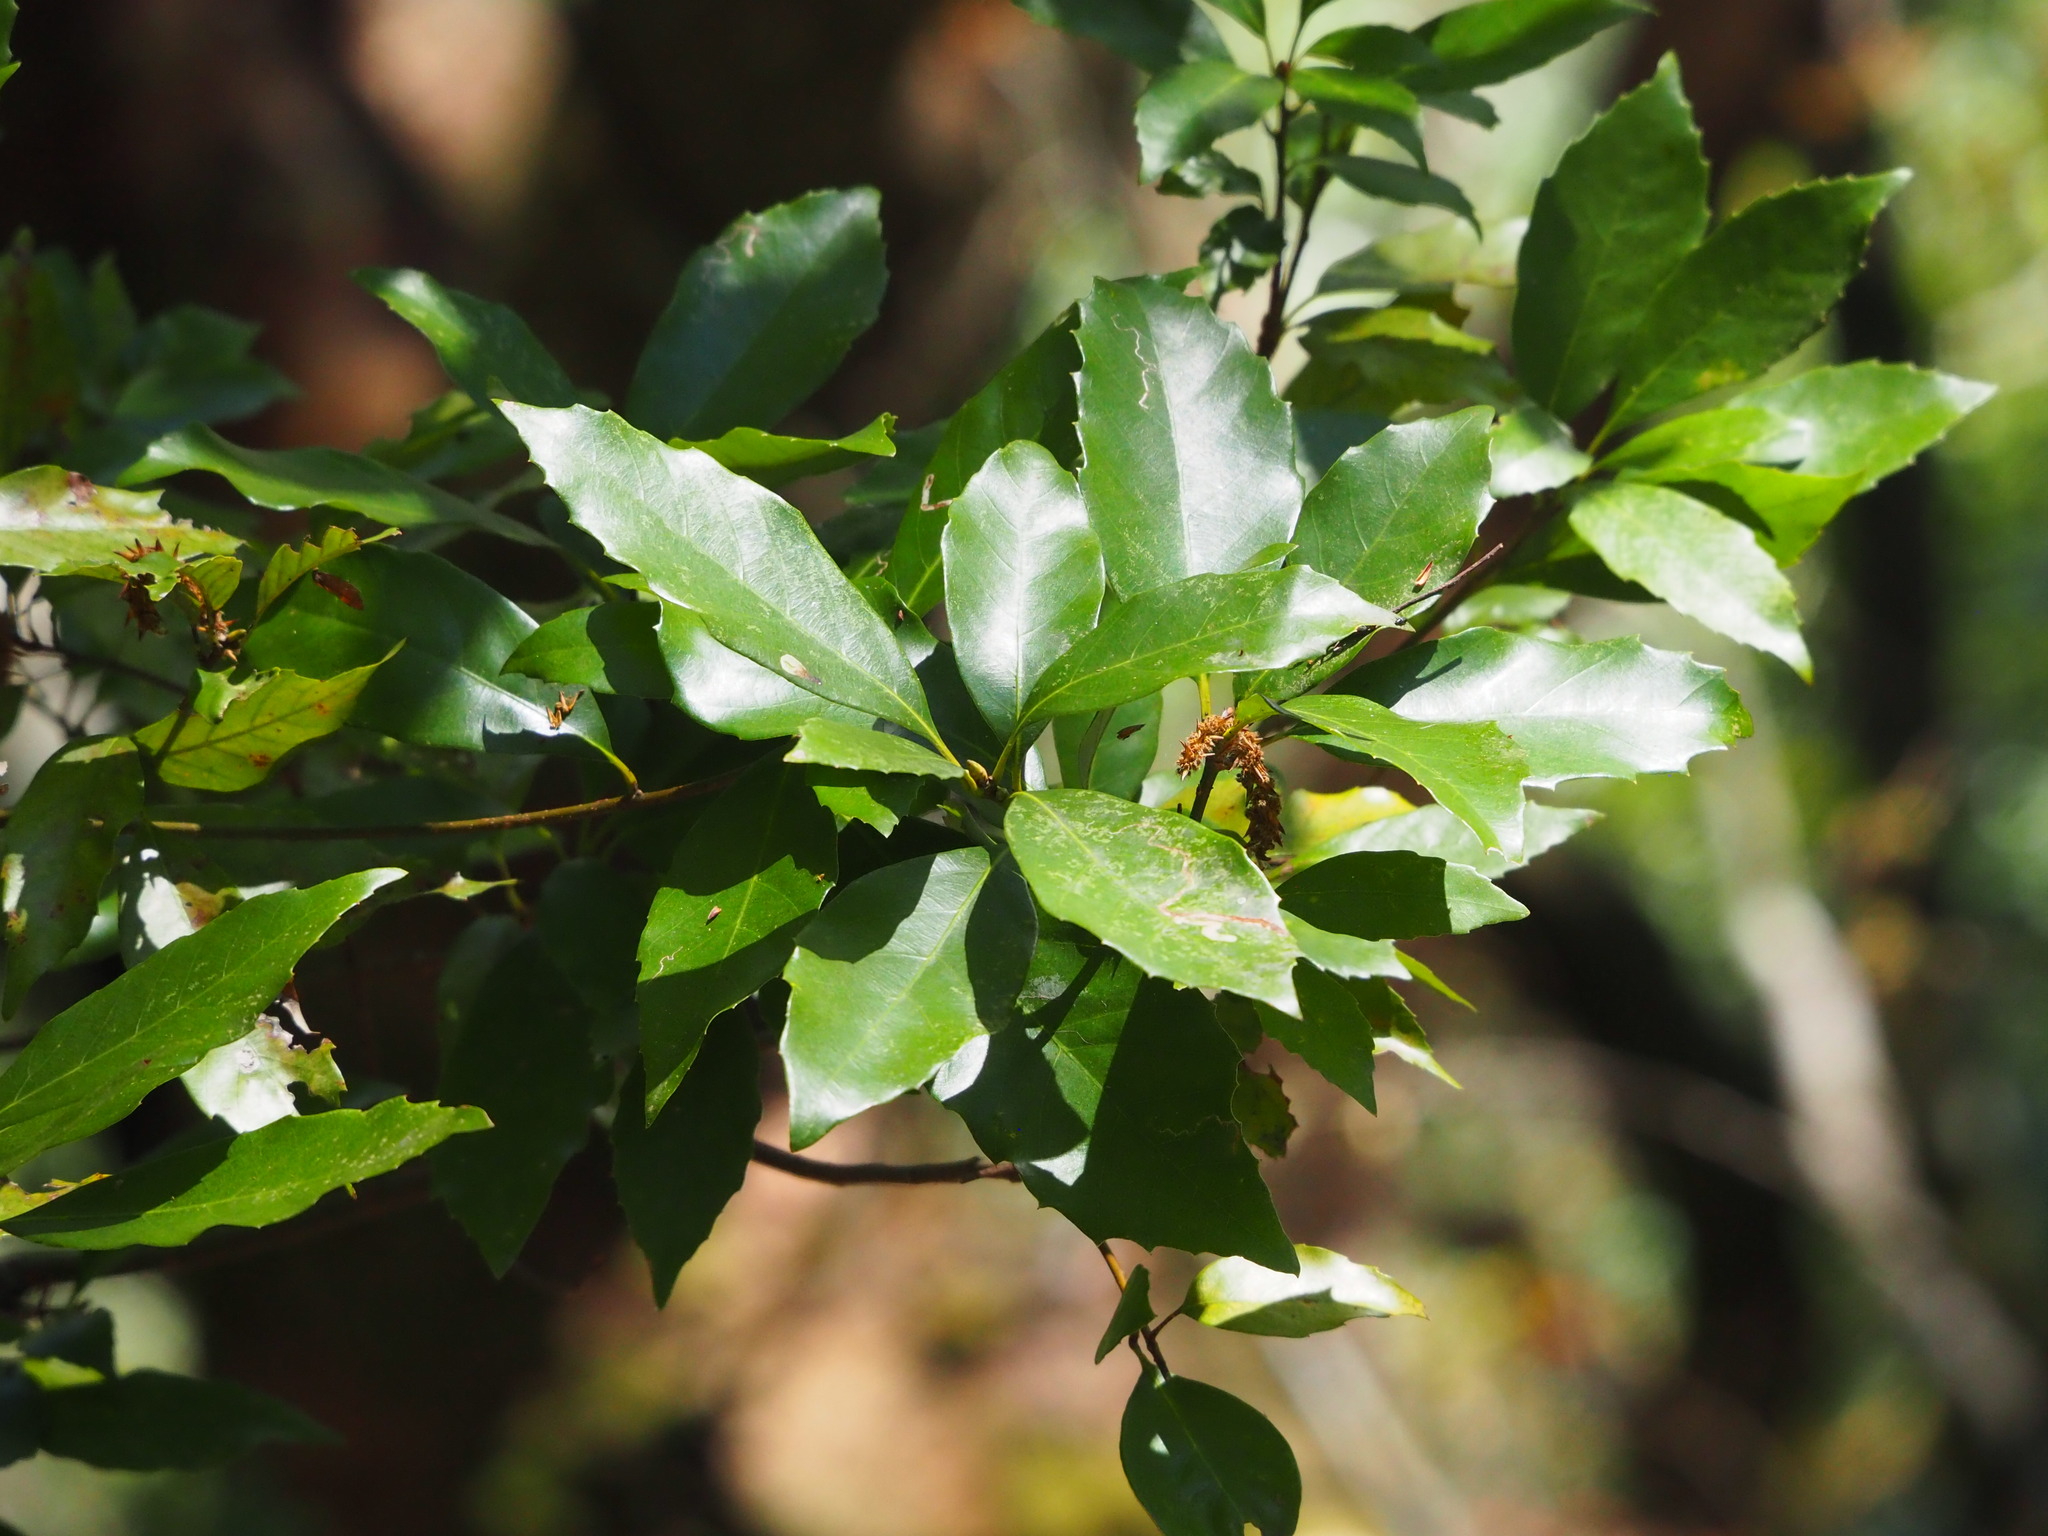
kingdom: Plantae
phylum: Tracheophyta
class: Magnoliopsida
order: Fagales
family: Fagaceae
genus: Quercus
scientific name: Quercus glauca
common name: Ring-cup oak
